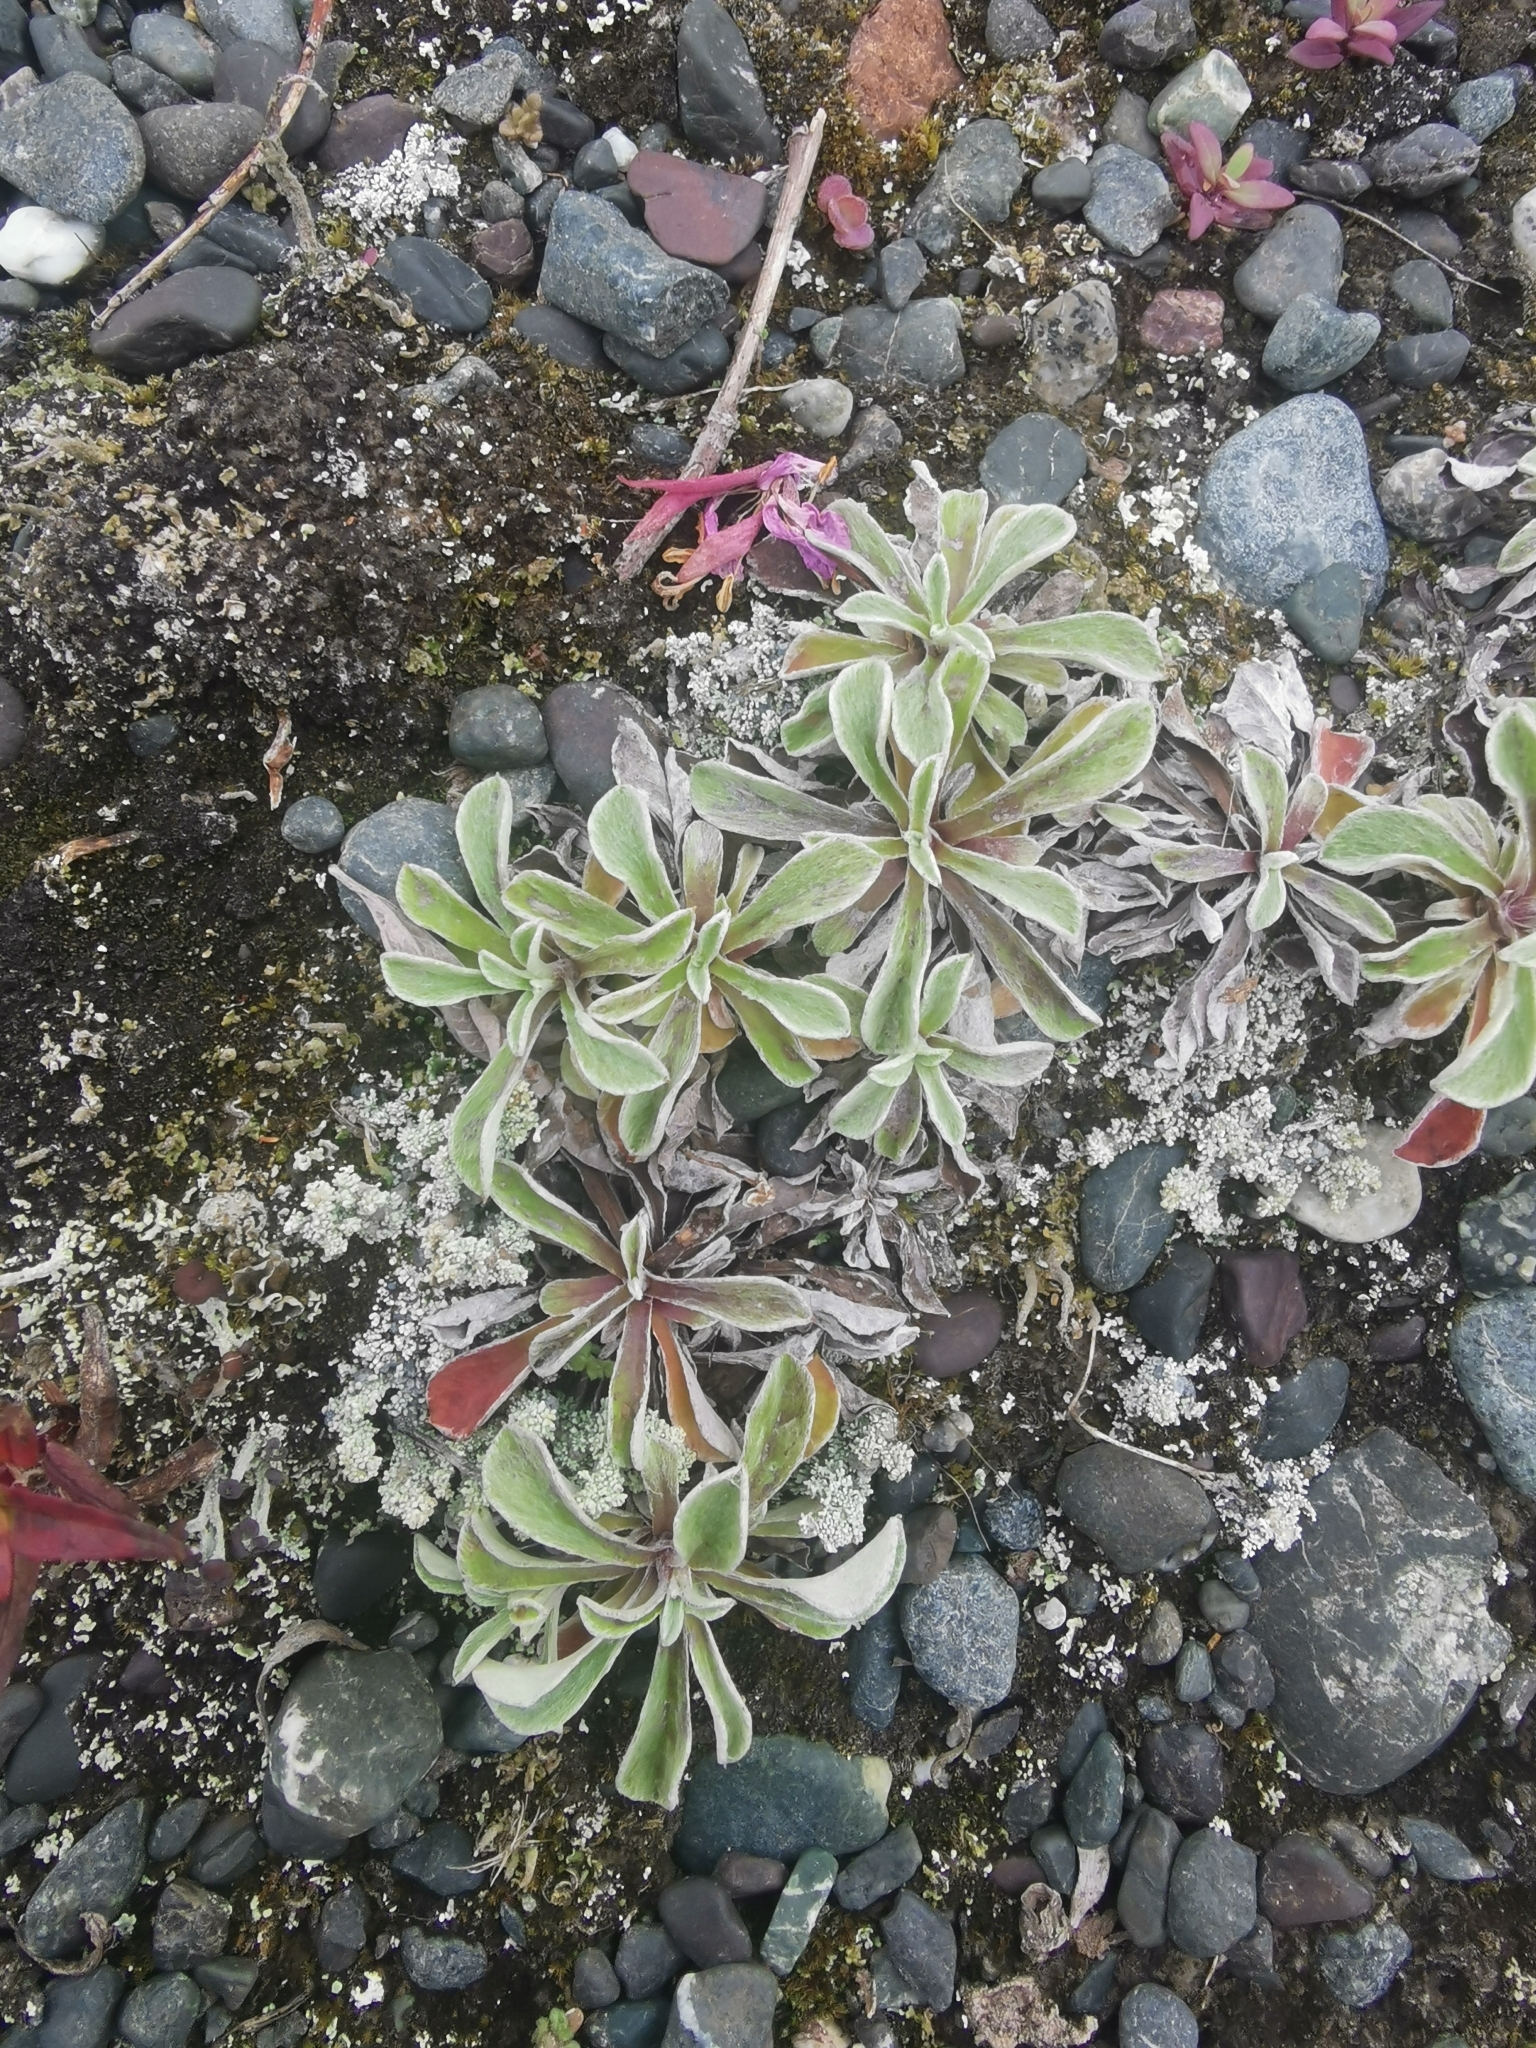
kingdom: Plantae
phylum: Tracheophyta
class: Magnoliopsida
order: Asterales
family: Asteraceae
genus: Antennaria
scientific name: Antennaria dioica
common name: Mountain everlasting
